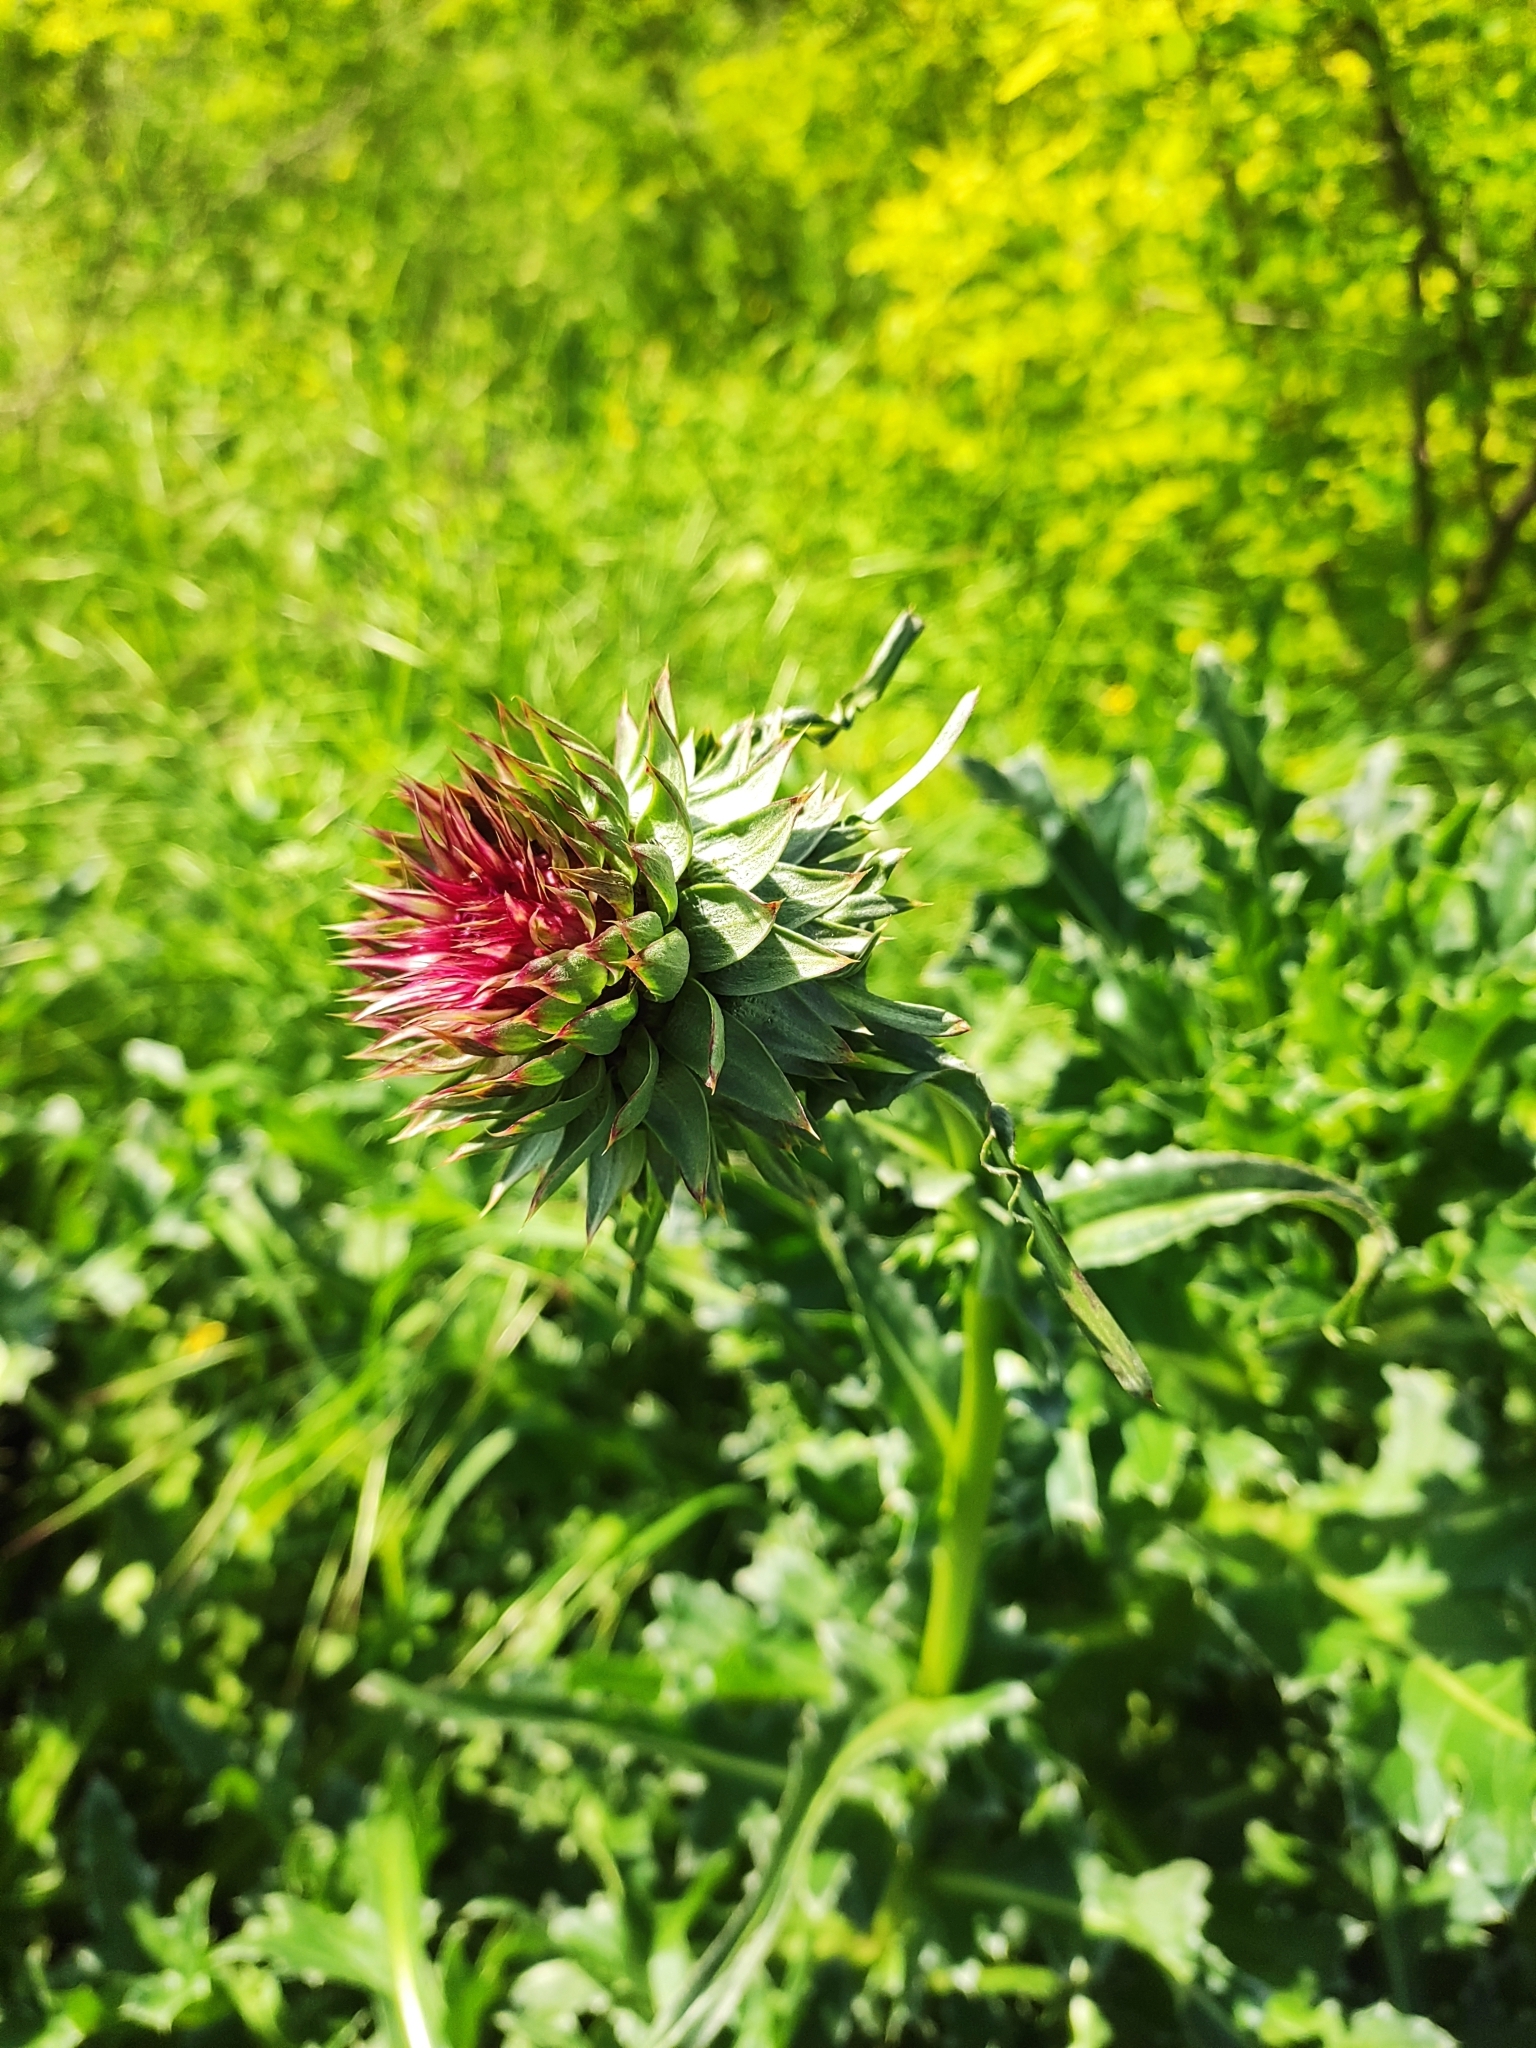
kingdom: Plantae
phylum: Tracheophyta
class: Magnoliopsida
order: Asterales
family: Asteraceae
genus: Carduus
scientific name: Carduus nutans
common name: Musk thistle
